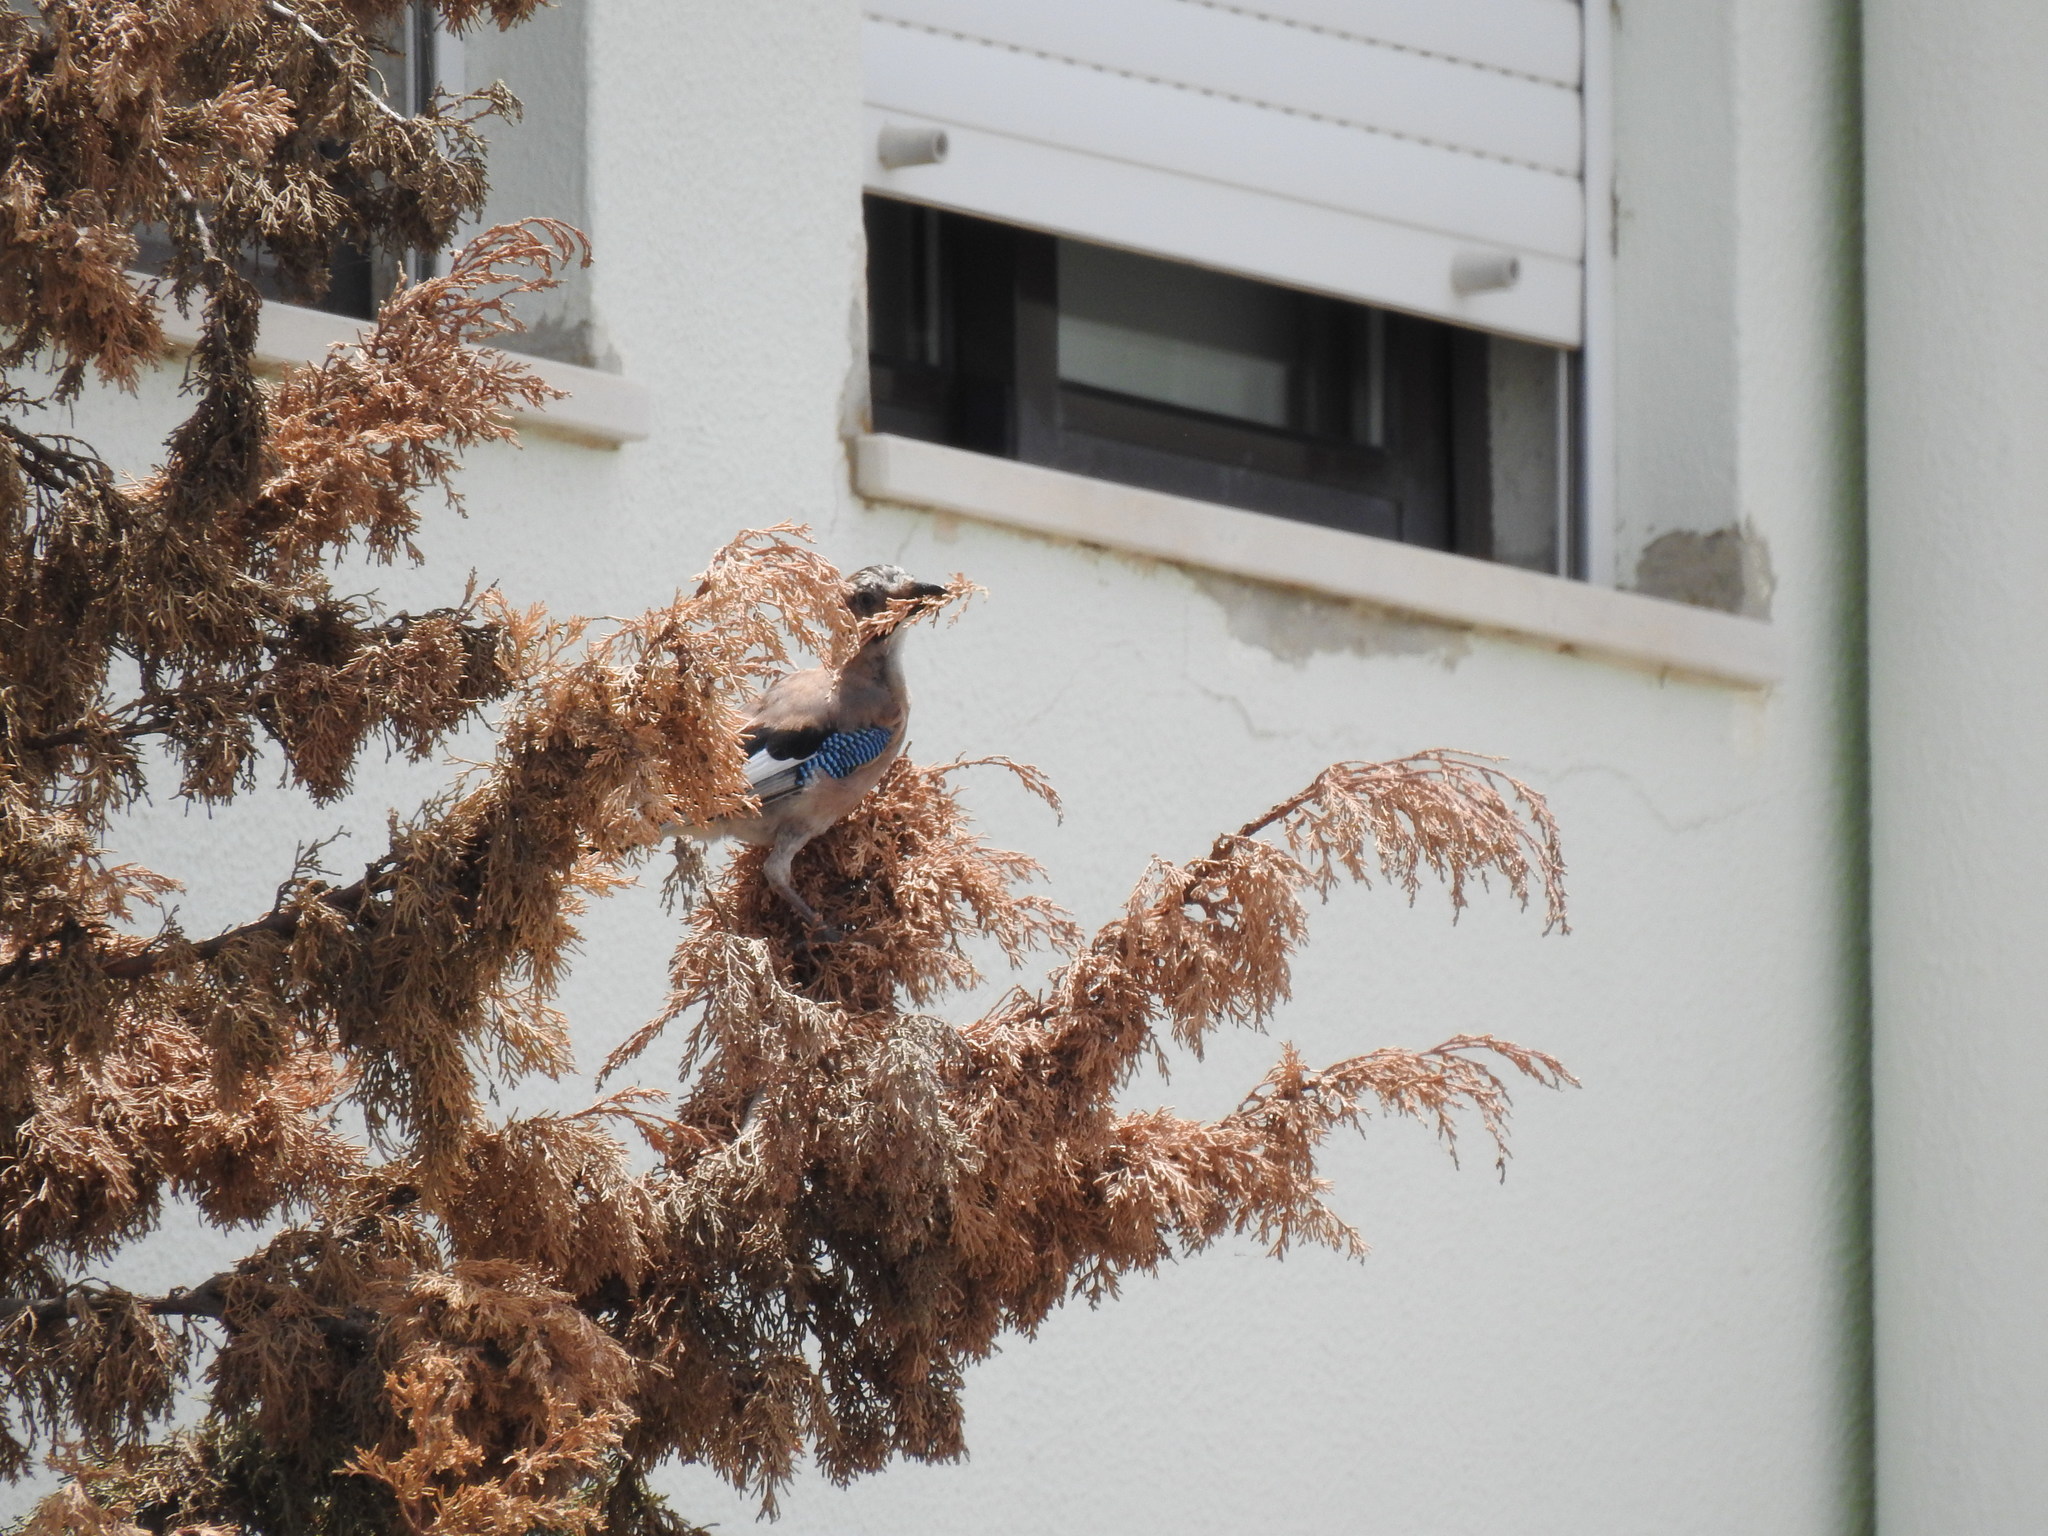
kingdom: Animalia
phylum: Chordata
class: Aves
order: Passeriformes
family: Corvidae
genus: Garrulus
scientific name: Garrulus glandarius
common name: Eurasian jay
